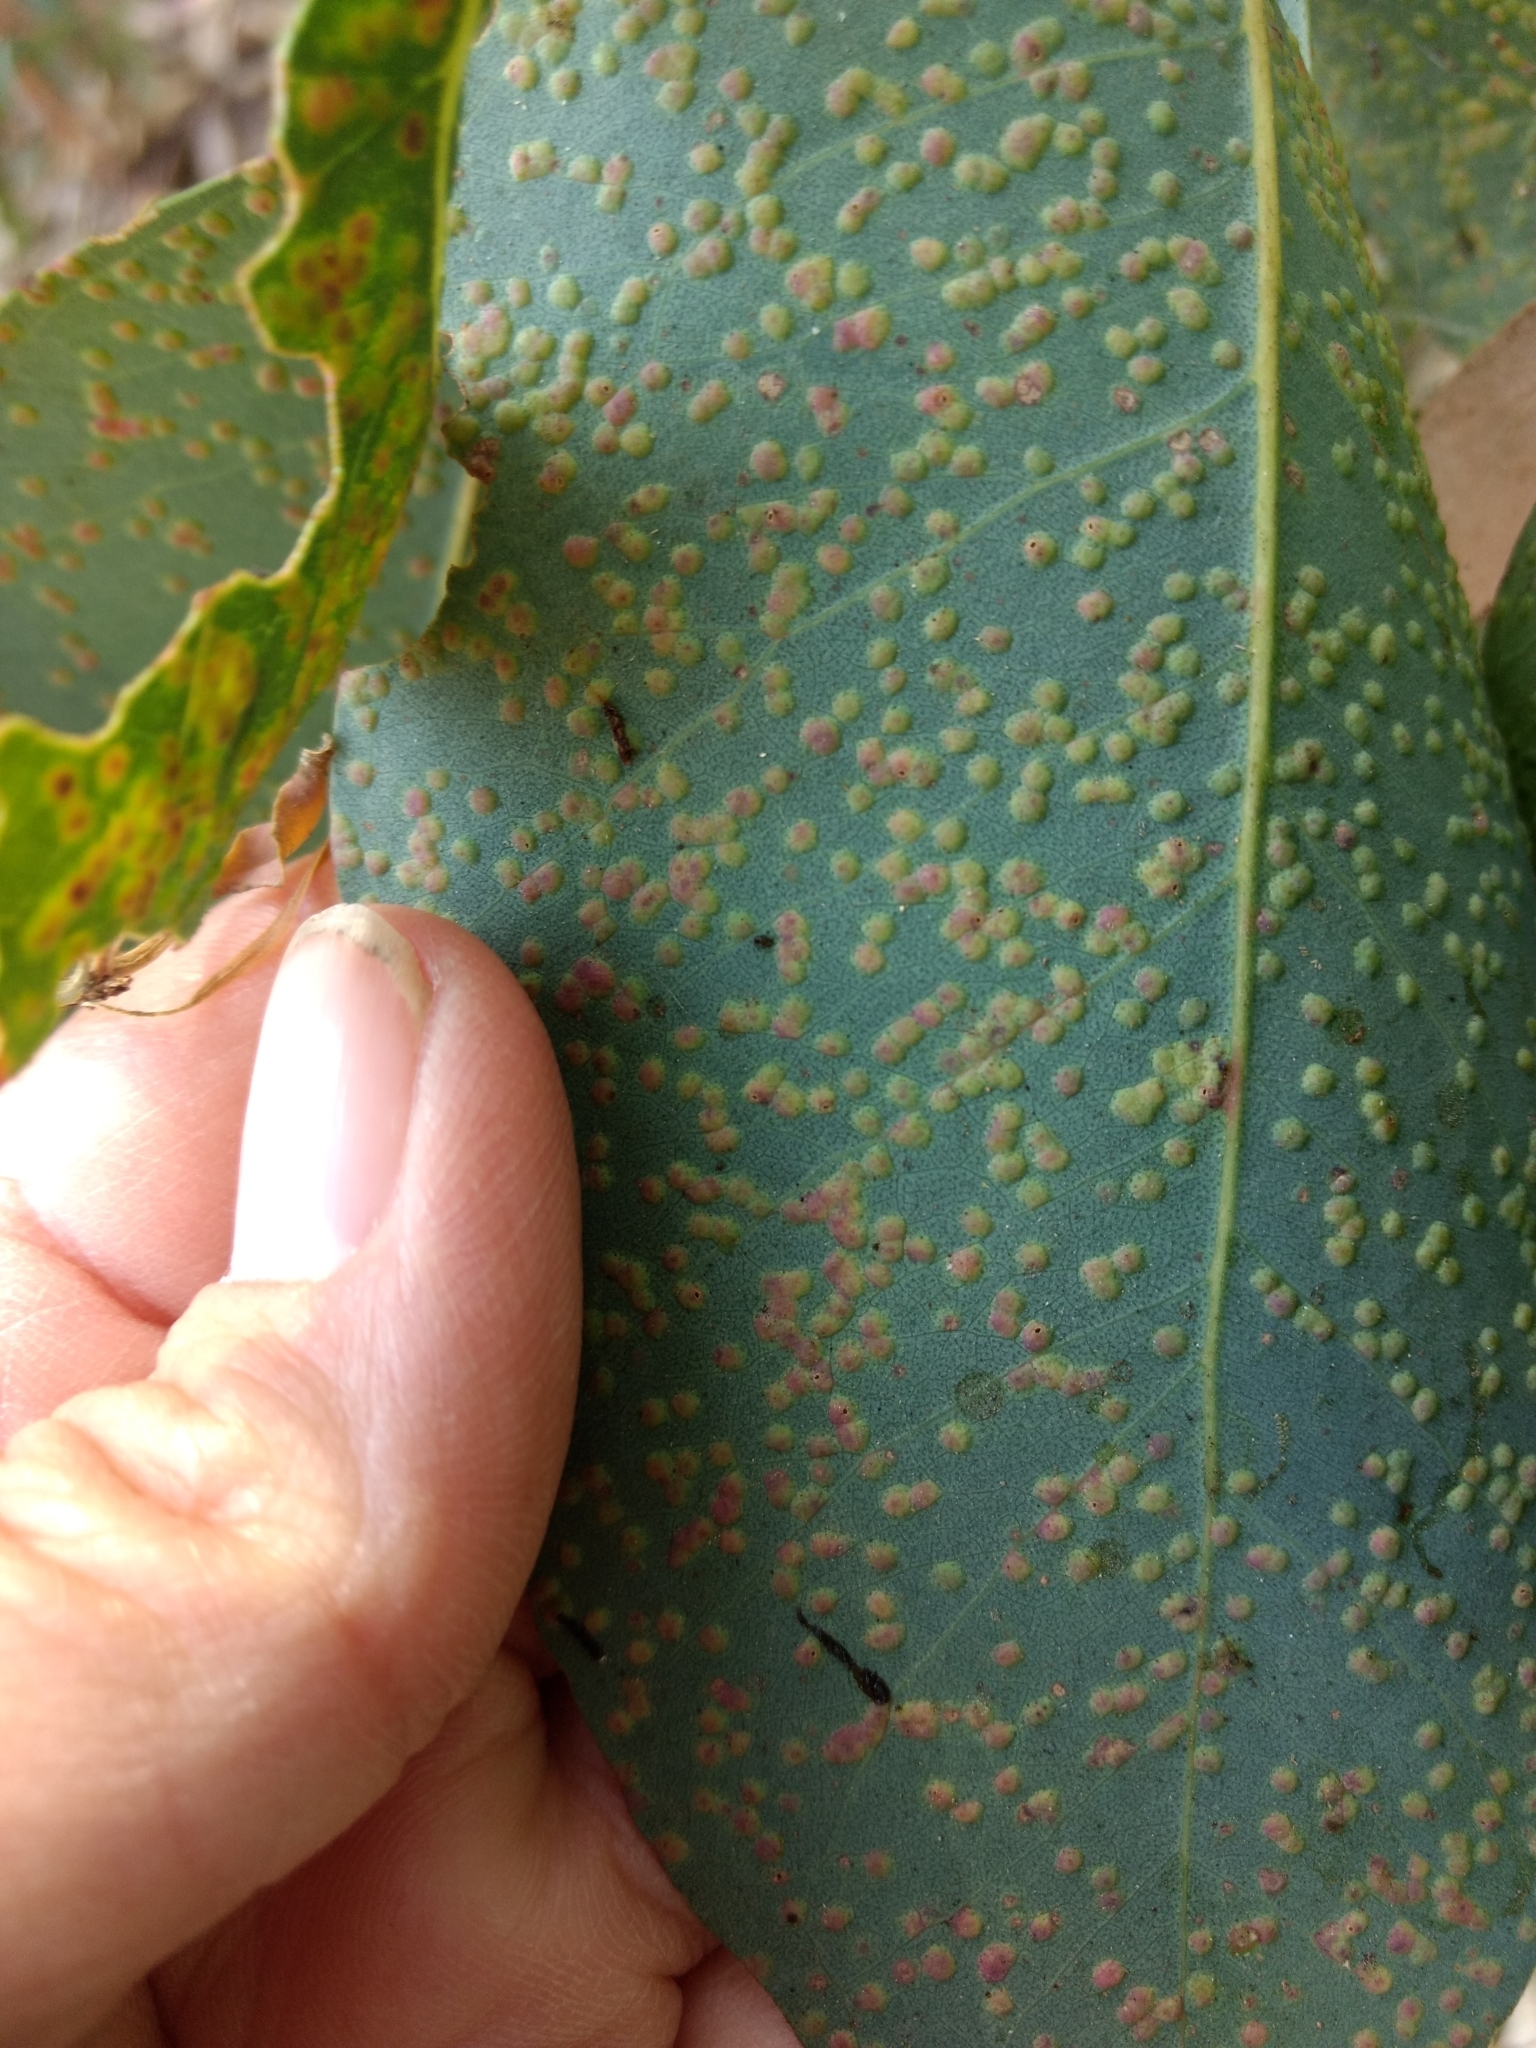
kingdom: Animalia
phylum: Arthropoda
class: Insecta
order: Hymenoptera
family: Eulophidae
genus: Ophelimus
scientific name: Ophelimus maskelli
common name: Gall wasp
